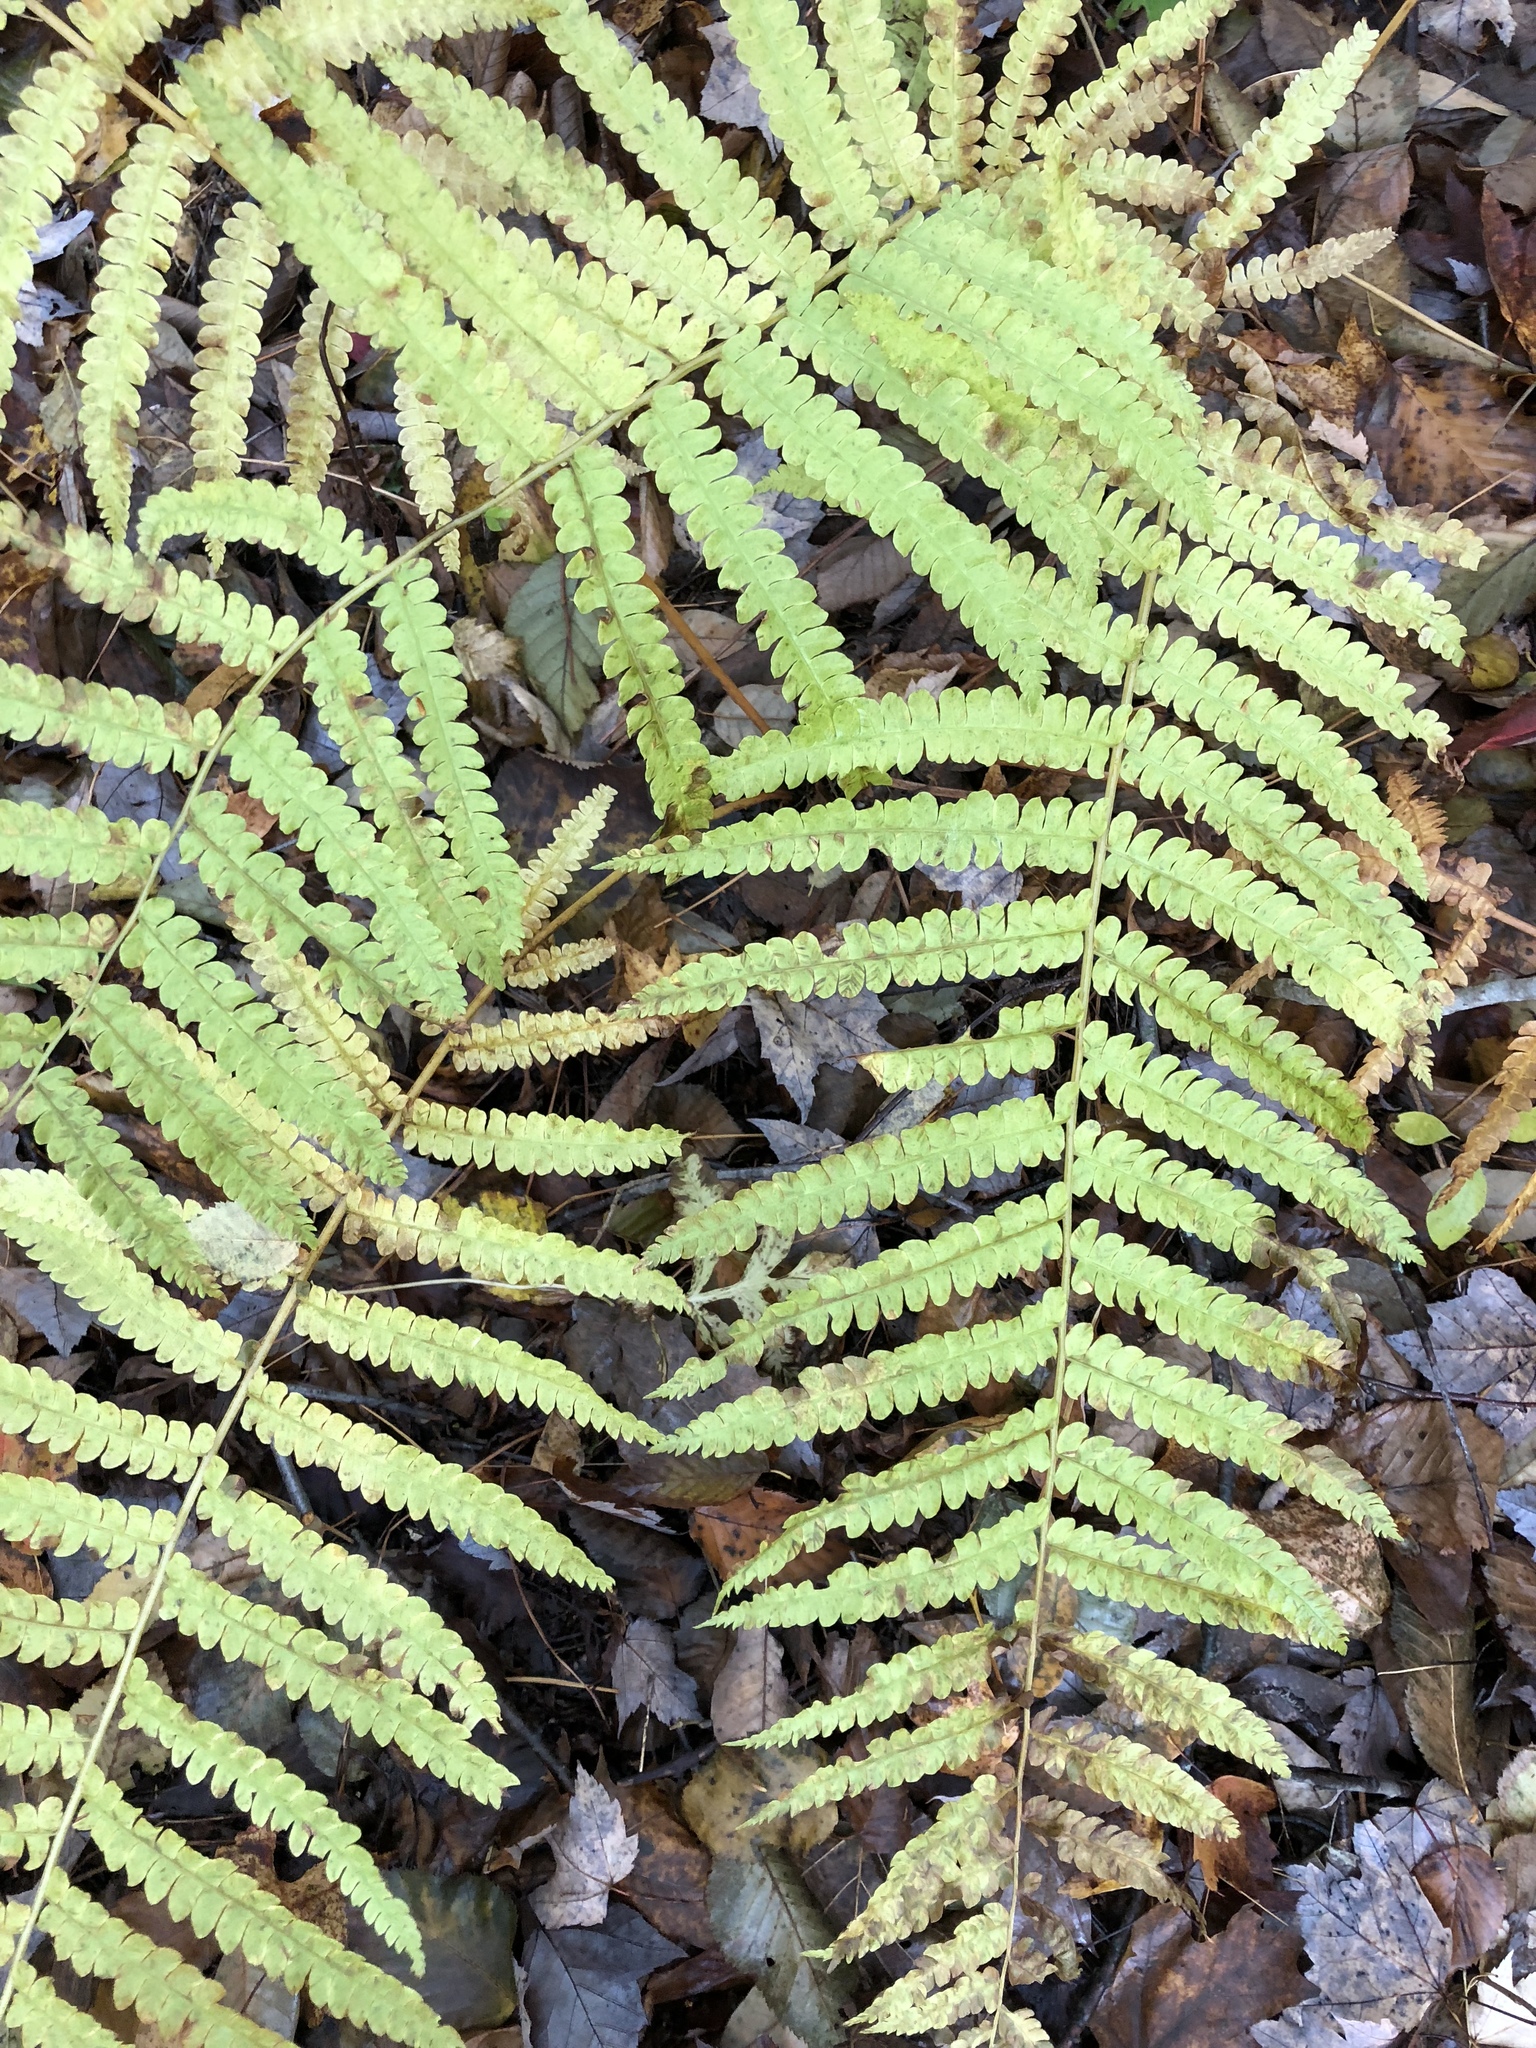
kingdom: Plantae
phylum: Tracheophyta
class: Polypodiopsida
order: Osmundales
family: Osmundaceae
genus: Osmundastrum
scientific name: Osmundastrum cinnamomeum
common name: Cinnamon fern
